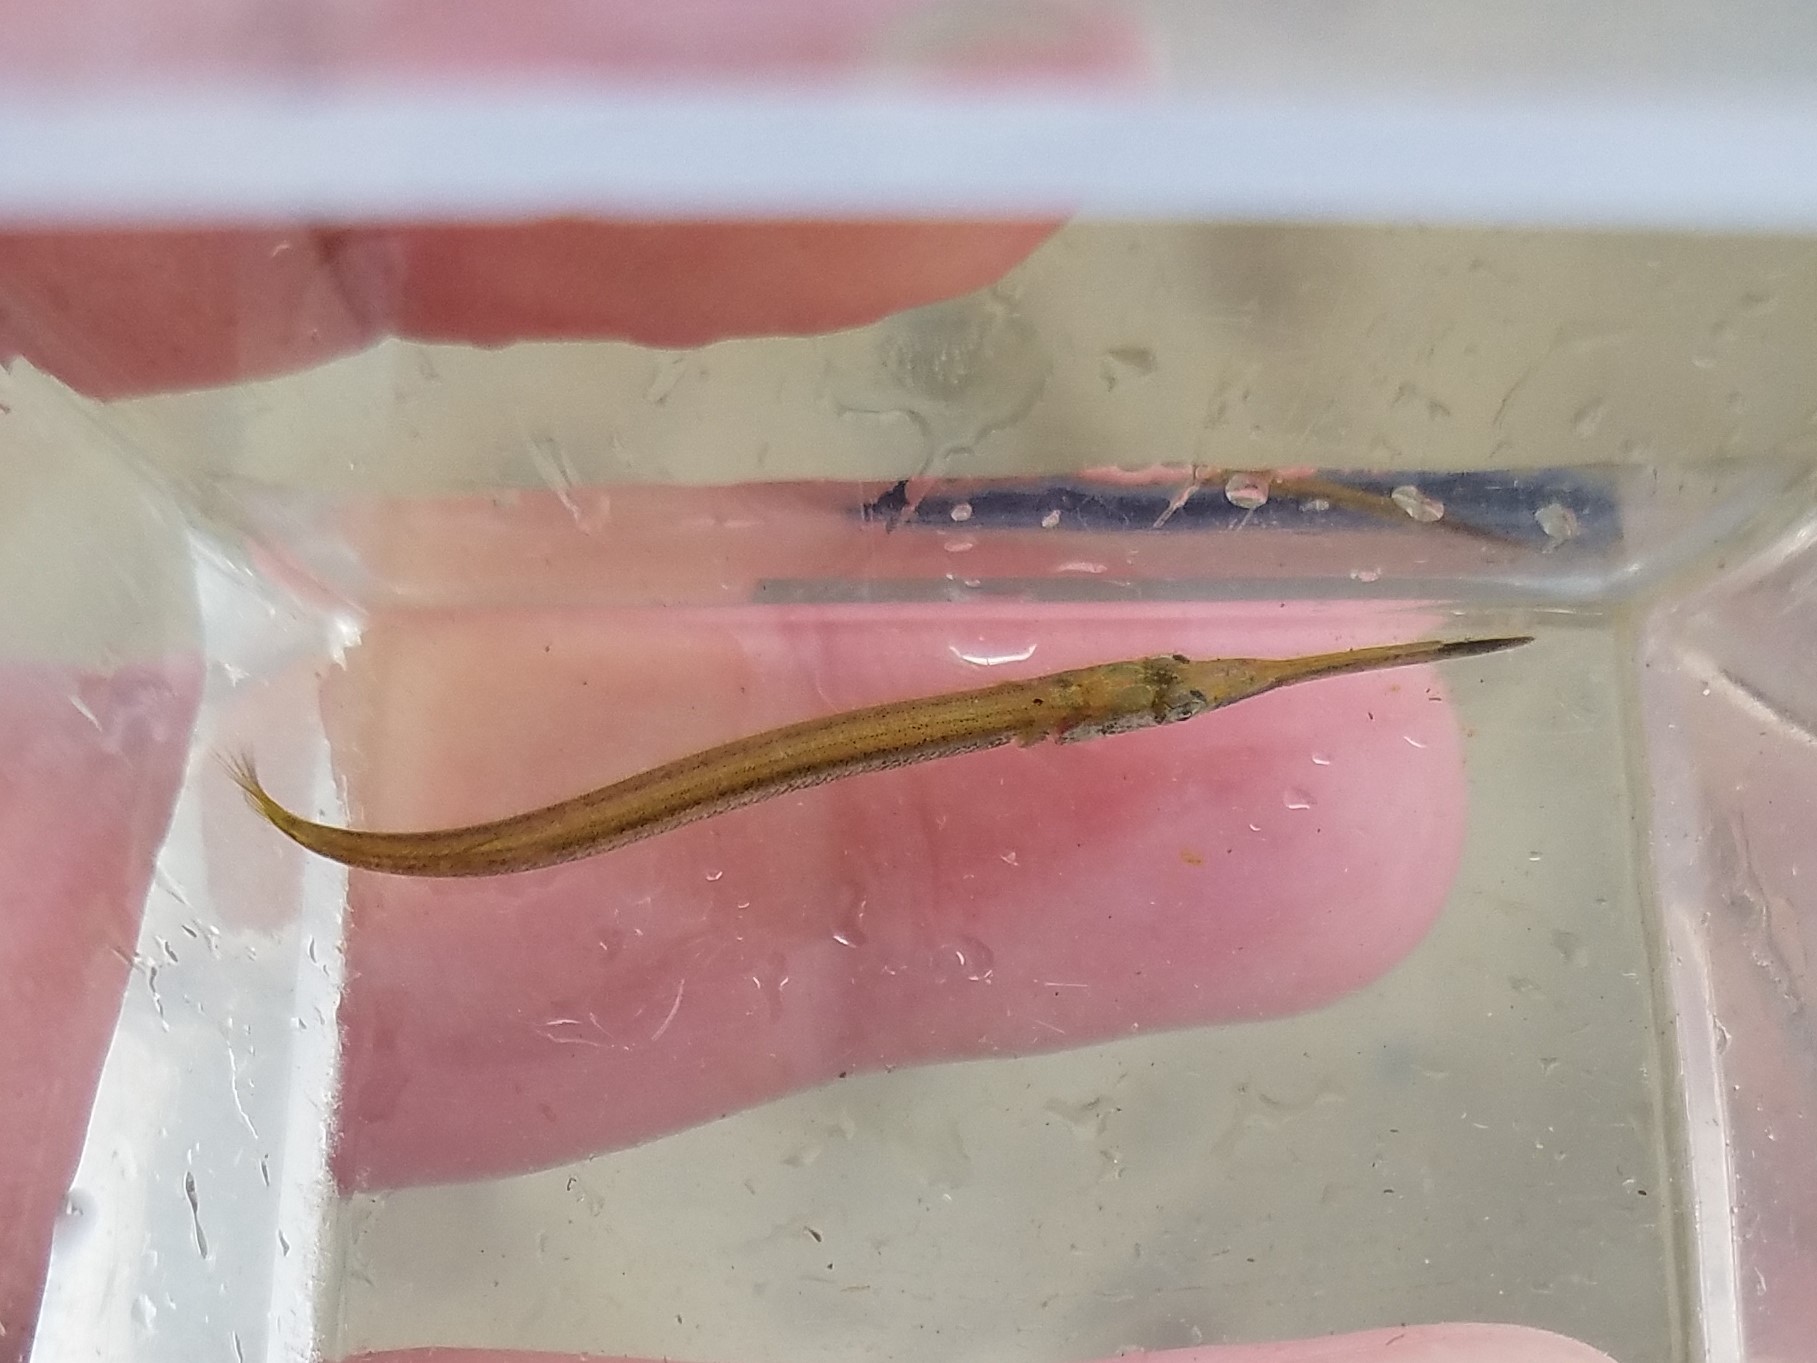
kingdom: Animalia
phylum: Chordata
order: Beloniformes
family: Belonidae
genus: Strongylura
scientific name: Strongylura timucu
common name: Timucu
